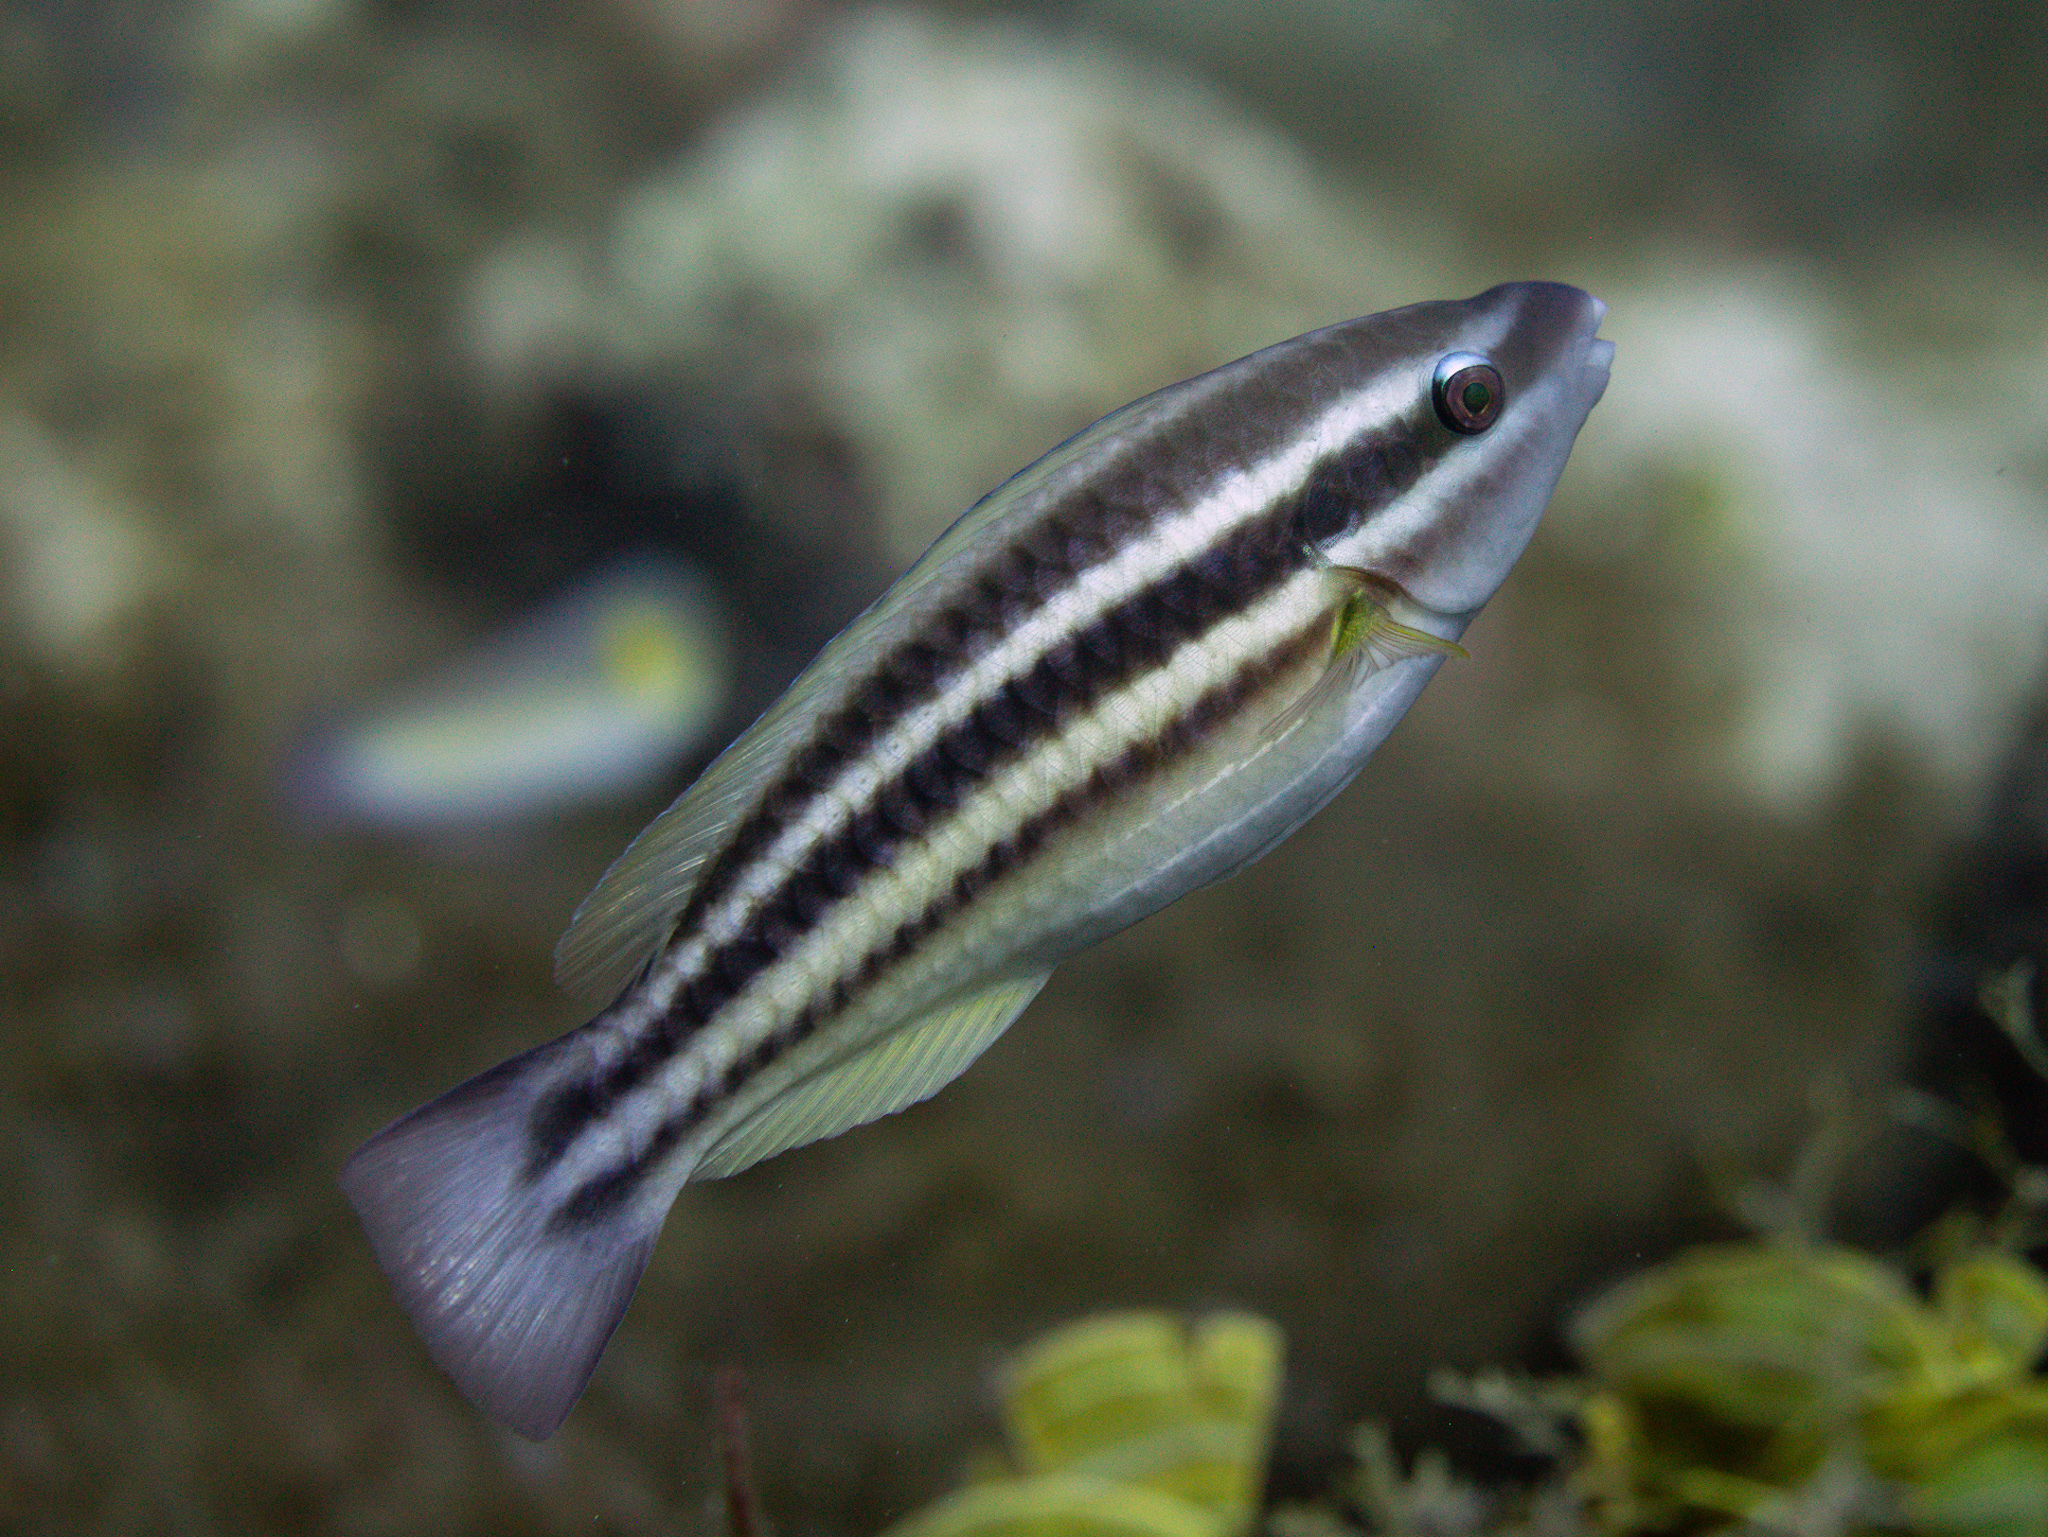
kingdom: Animalia
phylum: Chordata
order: Perciformes
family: Scaridae
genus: Scarus
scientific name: Scarus taeniopterus
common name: Princess parrotfish
